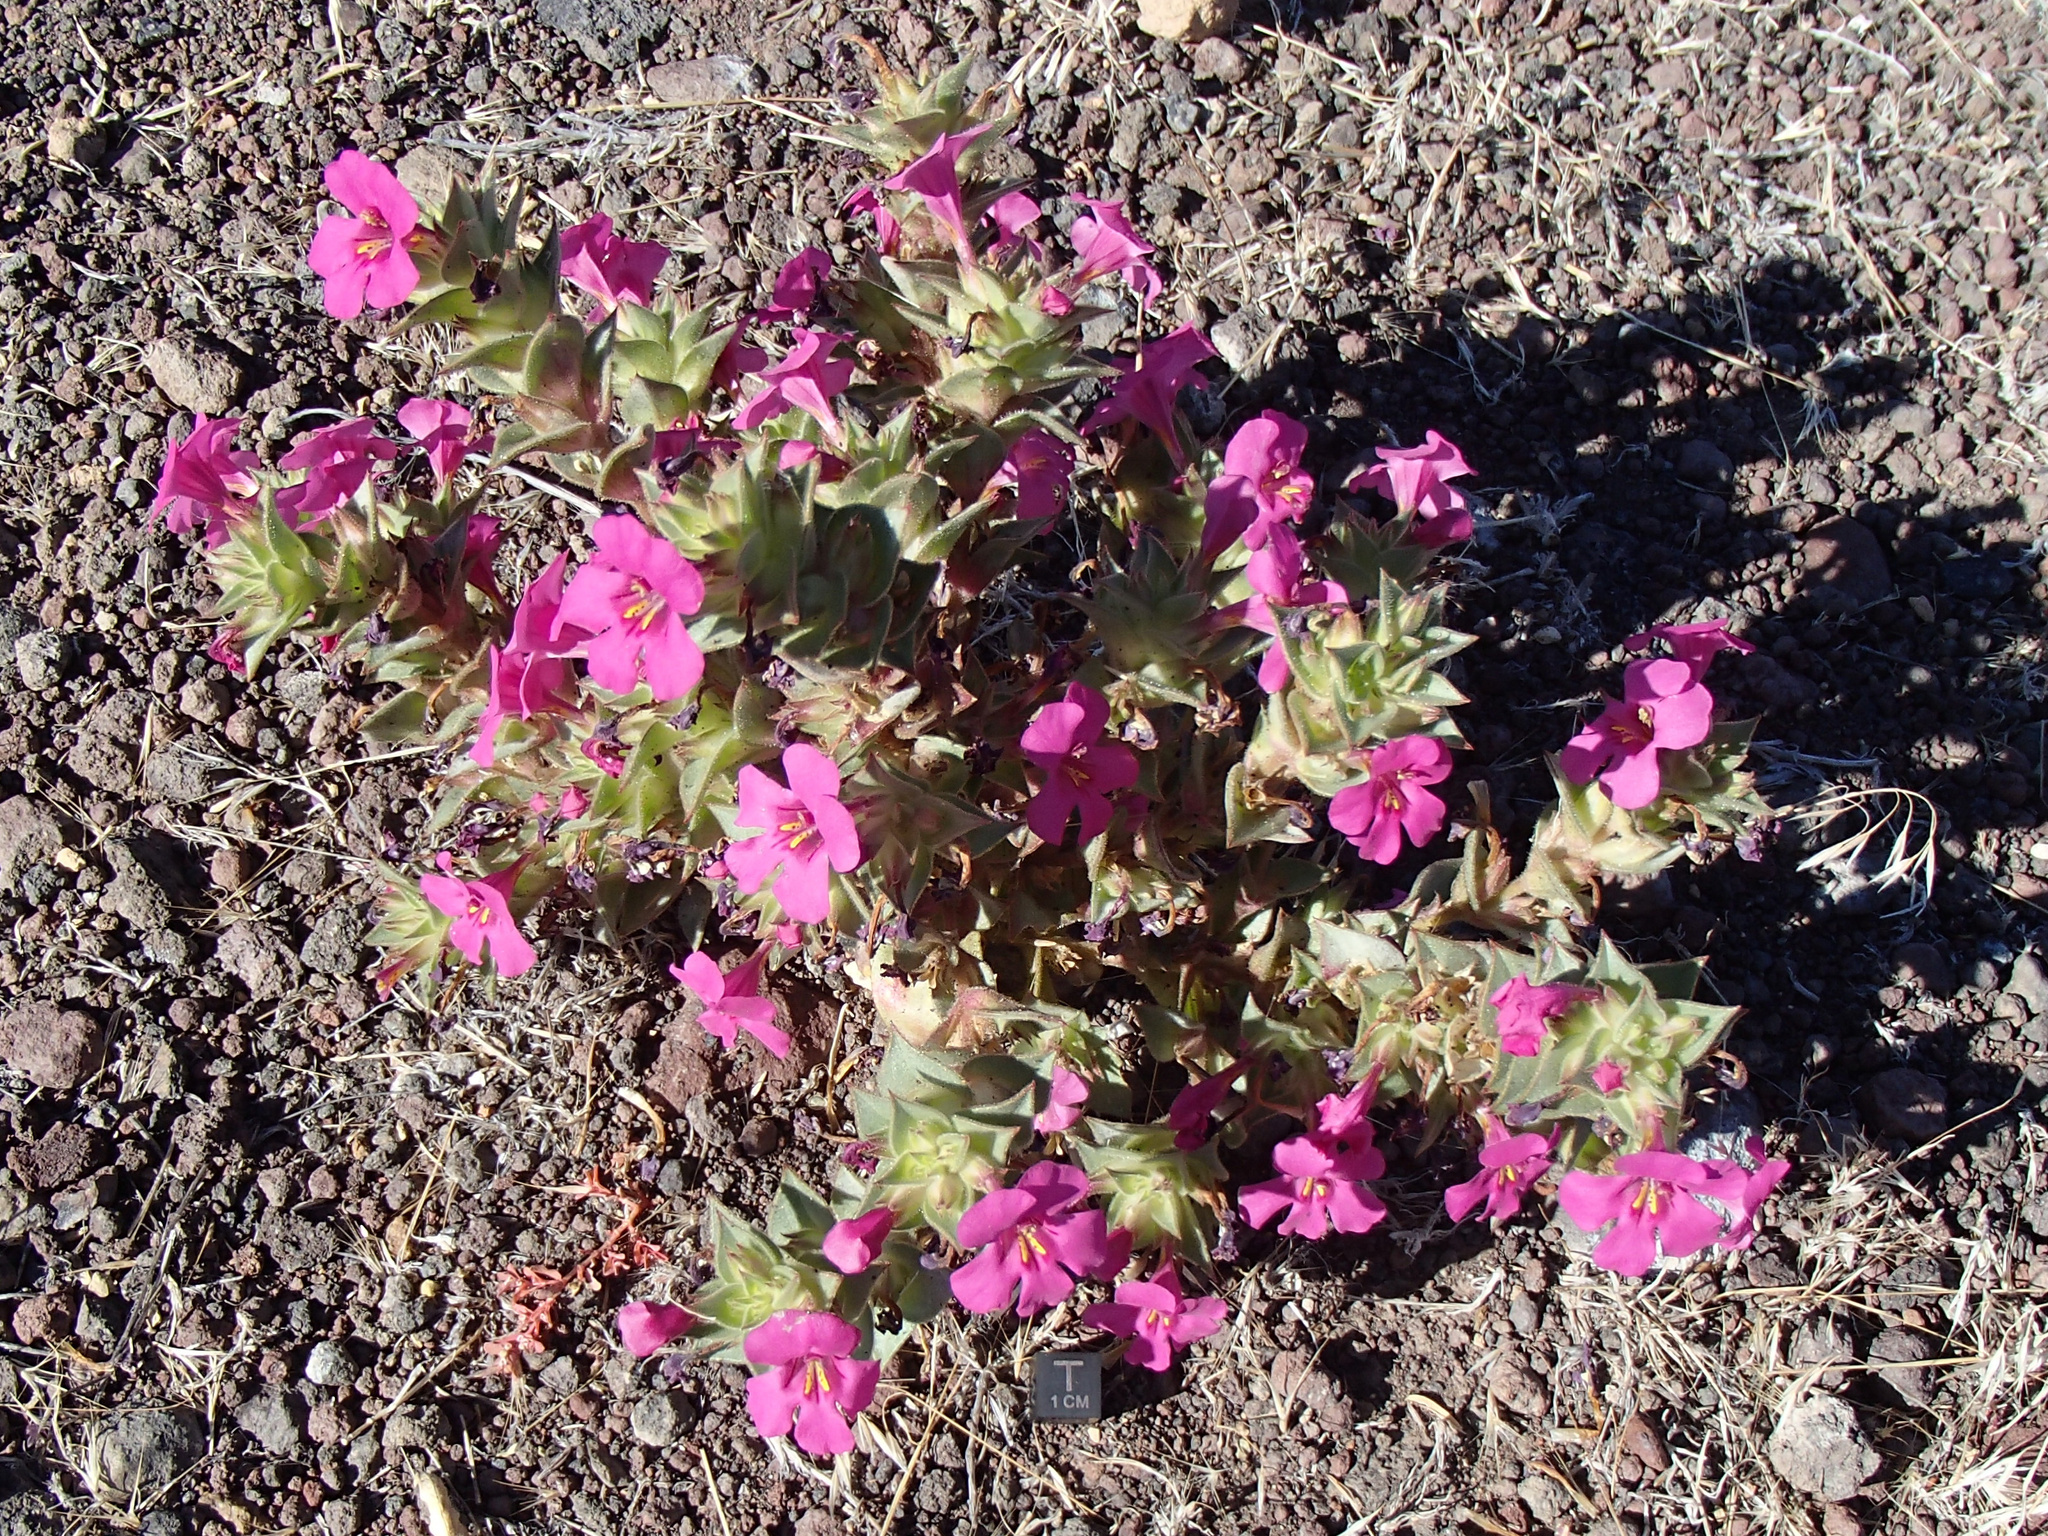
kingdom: Plantae
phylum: Tracheophyta
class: Magnoliopsida
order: Lamiales
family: Phrymaceae
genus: Diplacus
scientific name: Diplacus cusickioides
